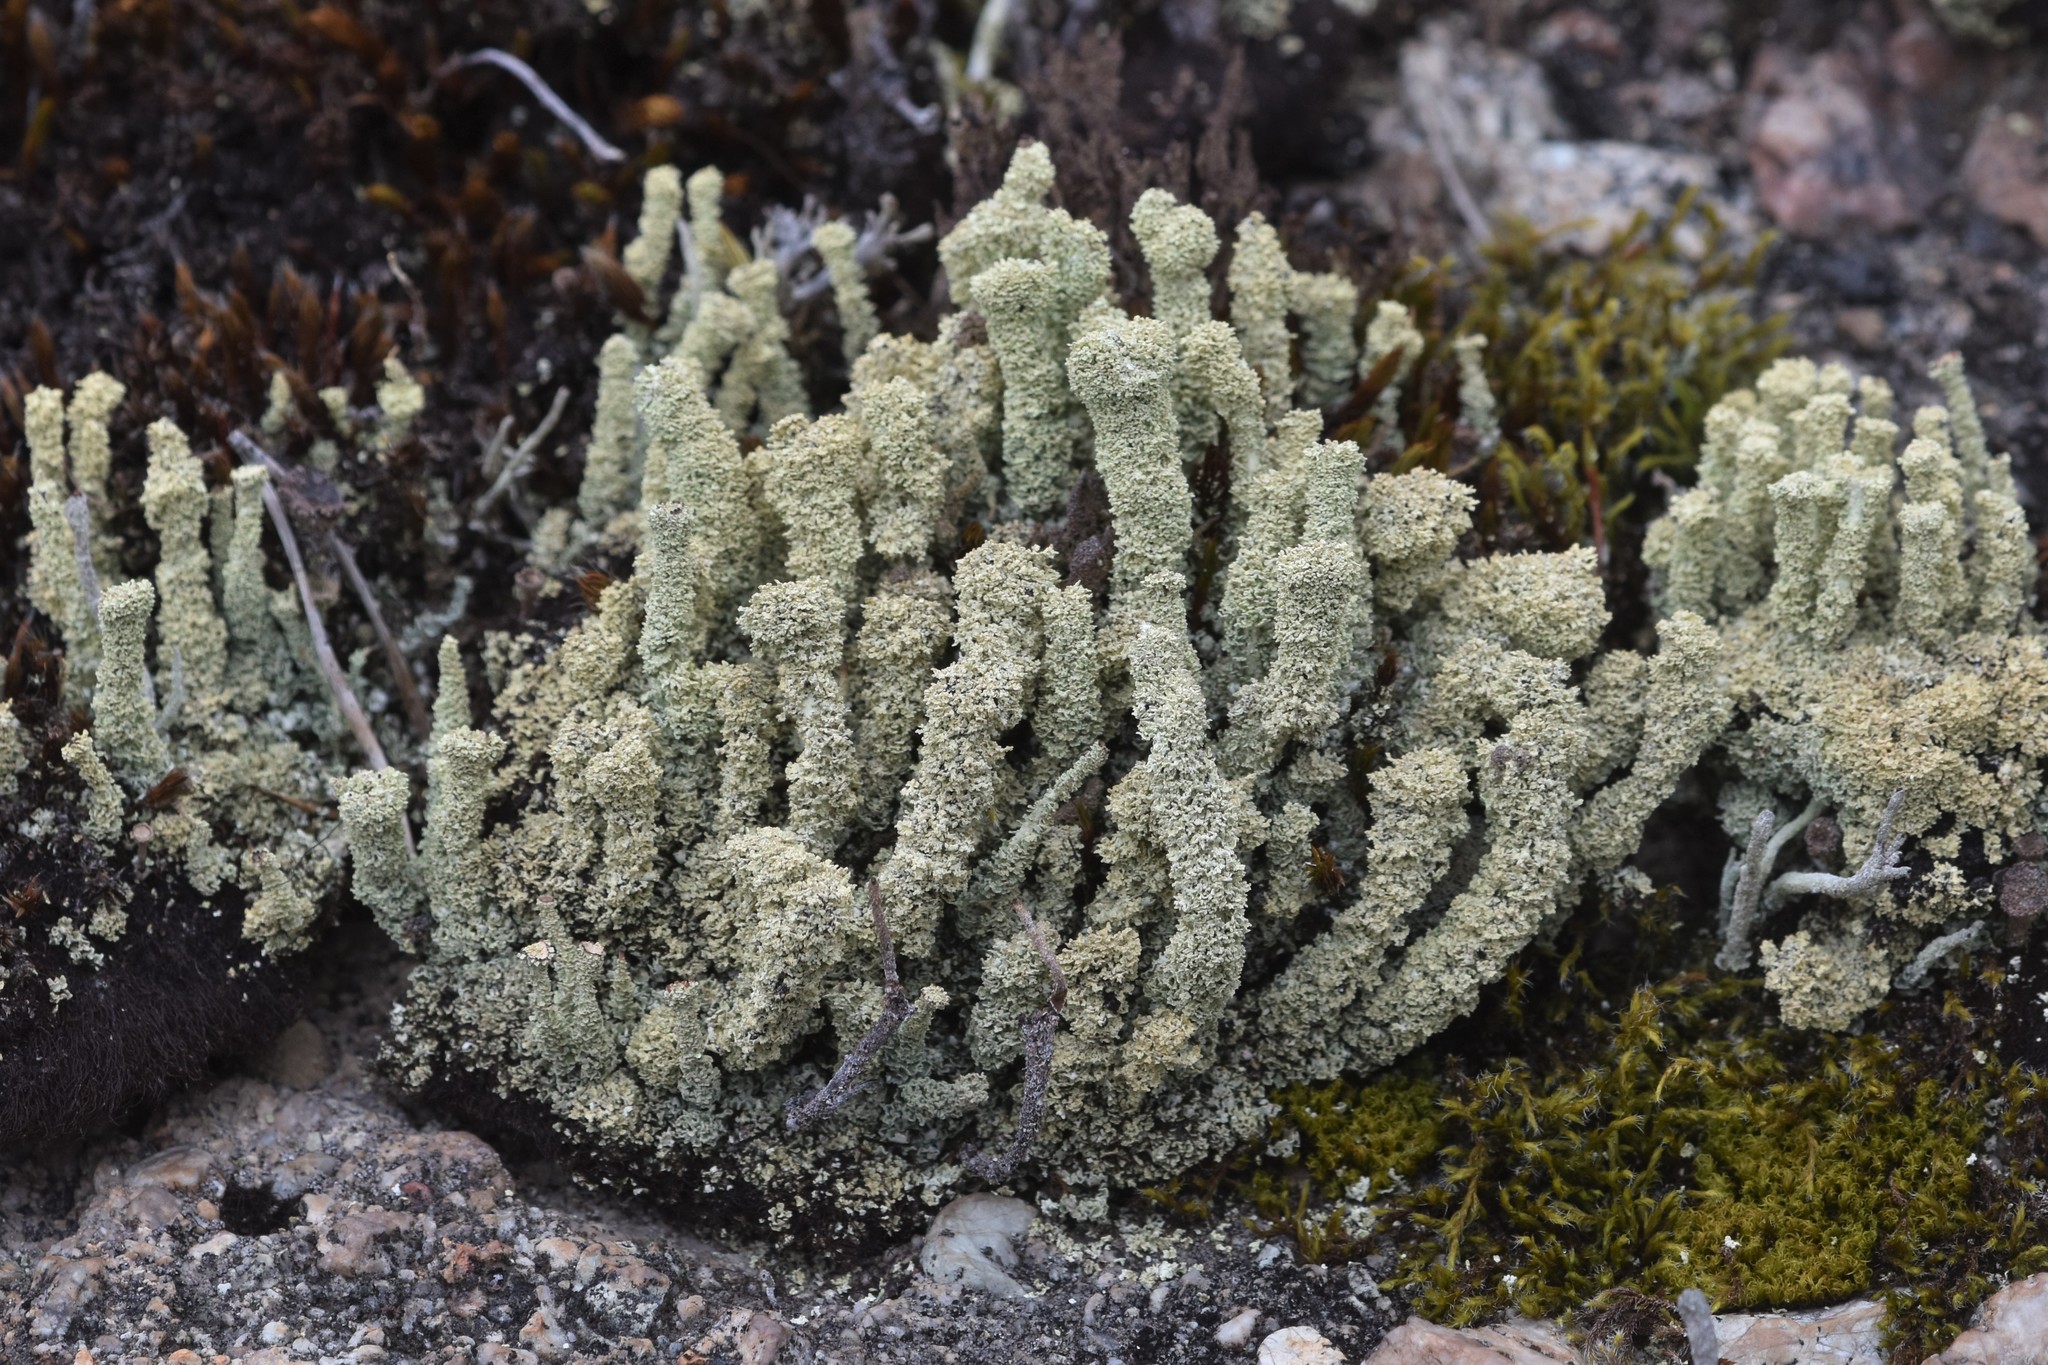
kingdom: Fungi
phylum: Ascomycota
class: Lecanoromycetes
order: Lecanorales
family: Cladoniaceae
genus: Cladonia
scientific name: Cladonia squamosa
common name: Dragon horn
